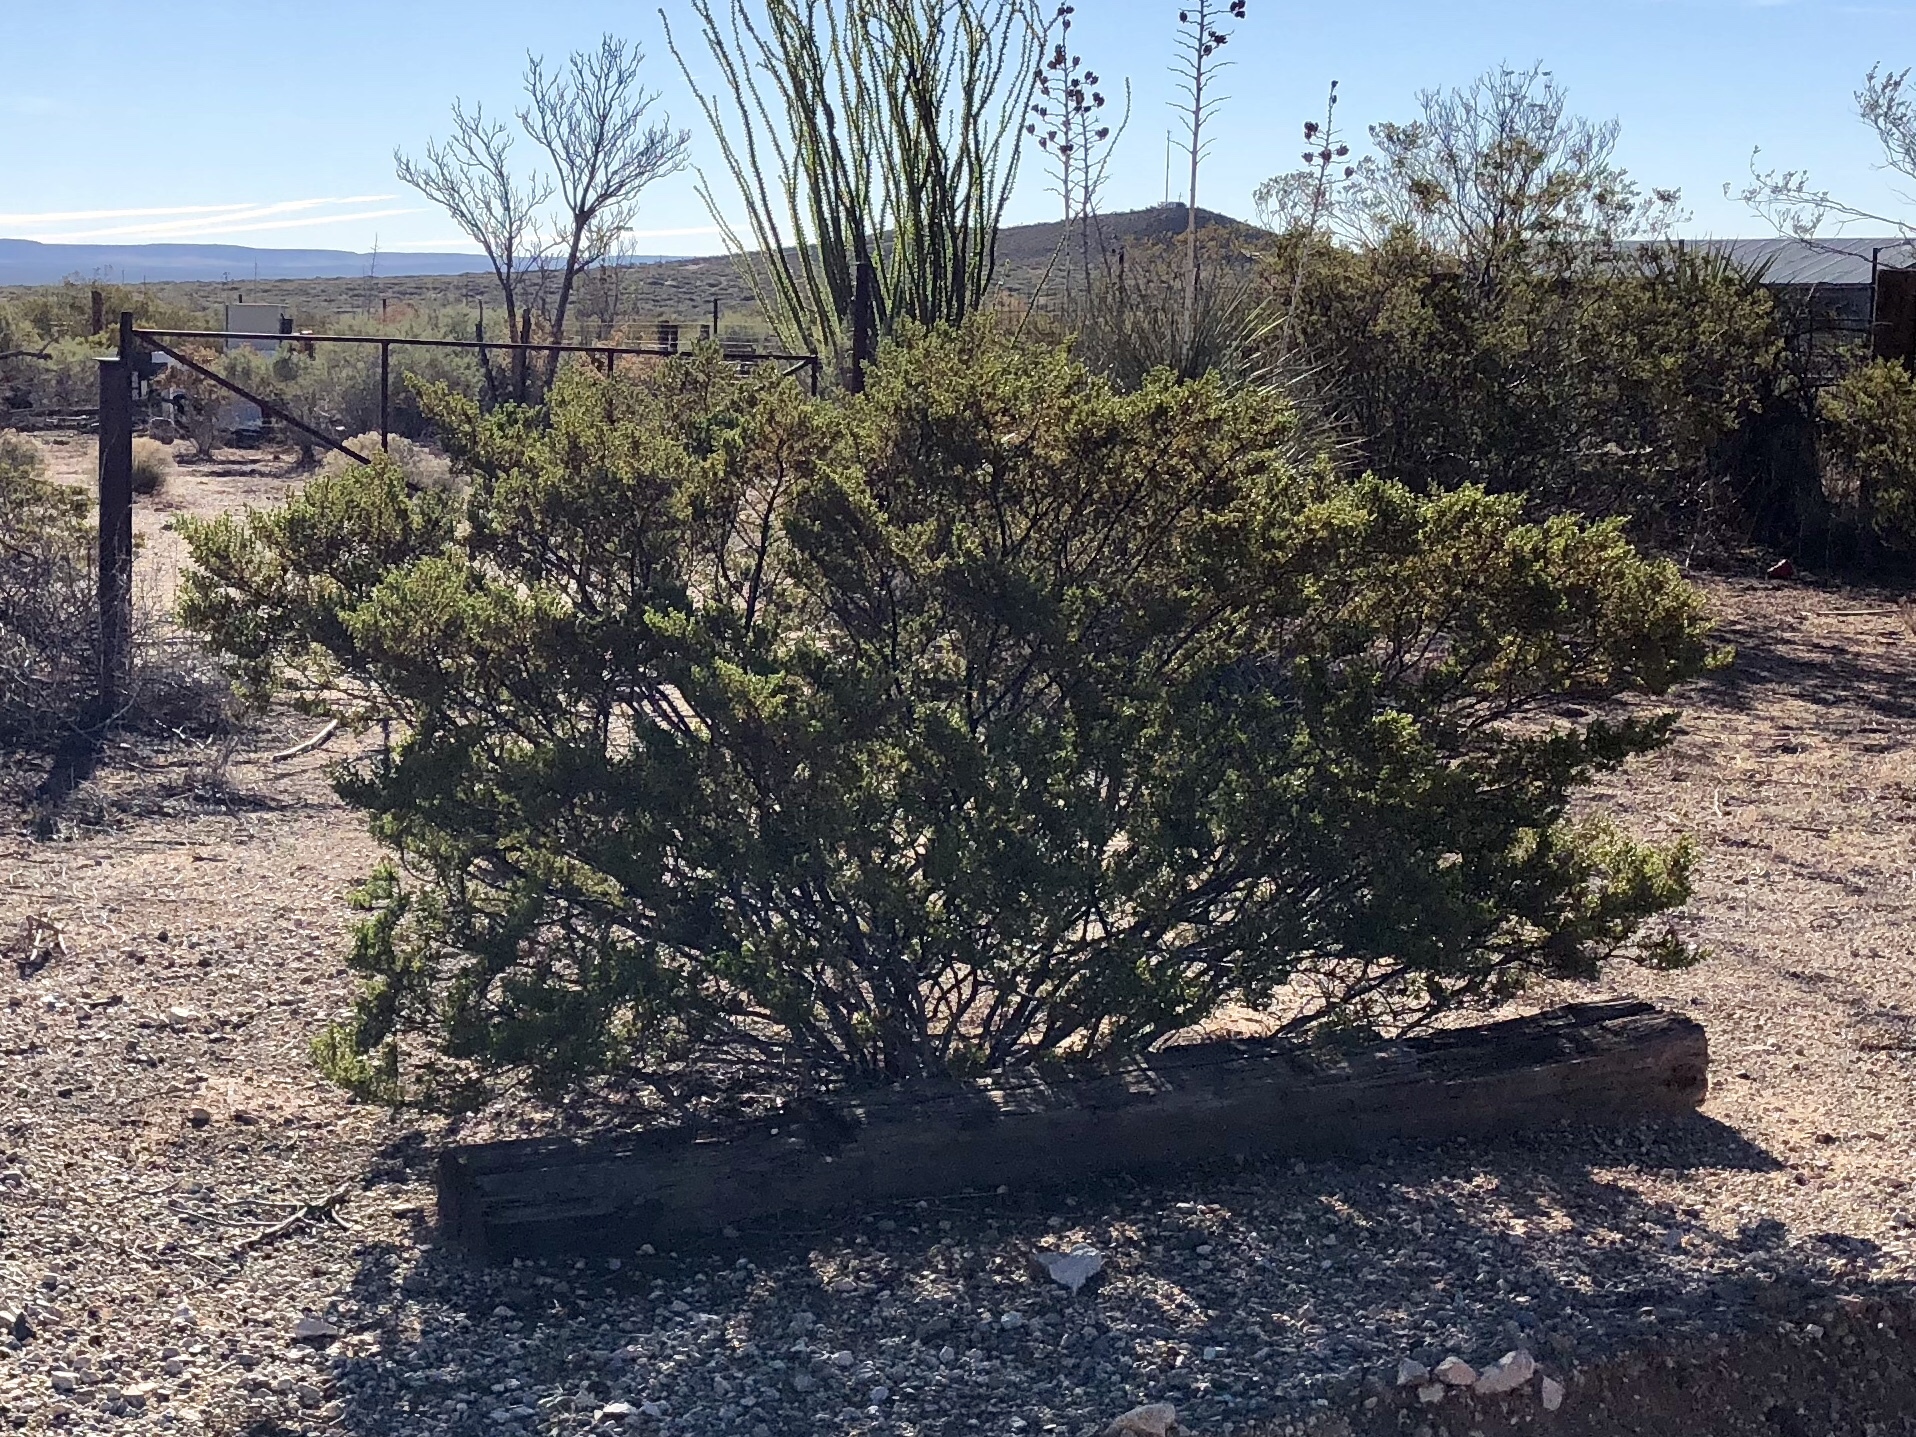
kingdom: Plantae
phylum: Tracheophyta
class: Magnoliopsida
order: Zygophyllales
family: Zygophyllaceae
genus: Larrea
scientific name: Larrea tridentata
